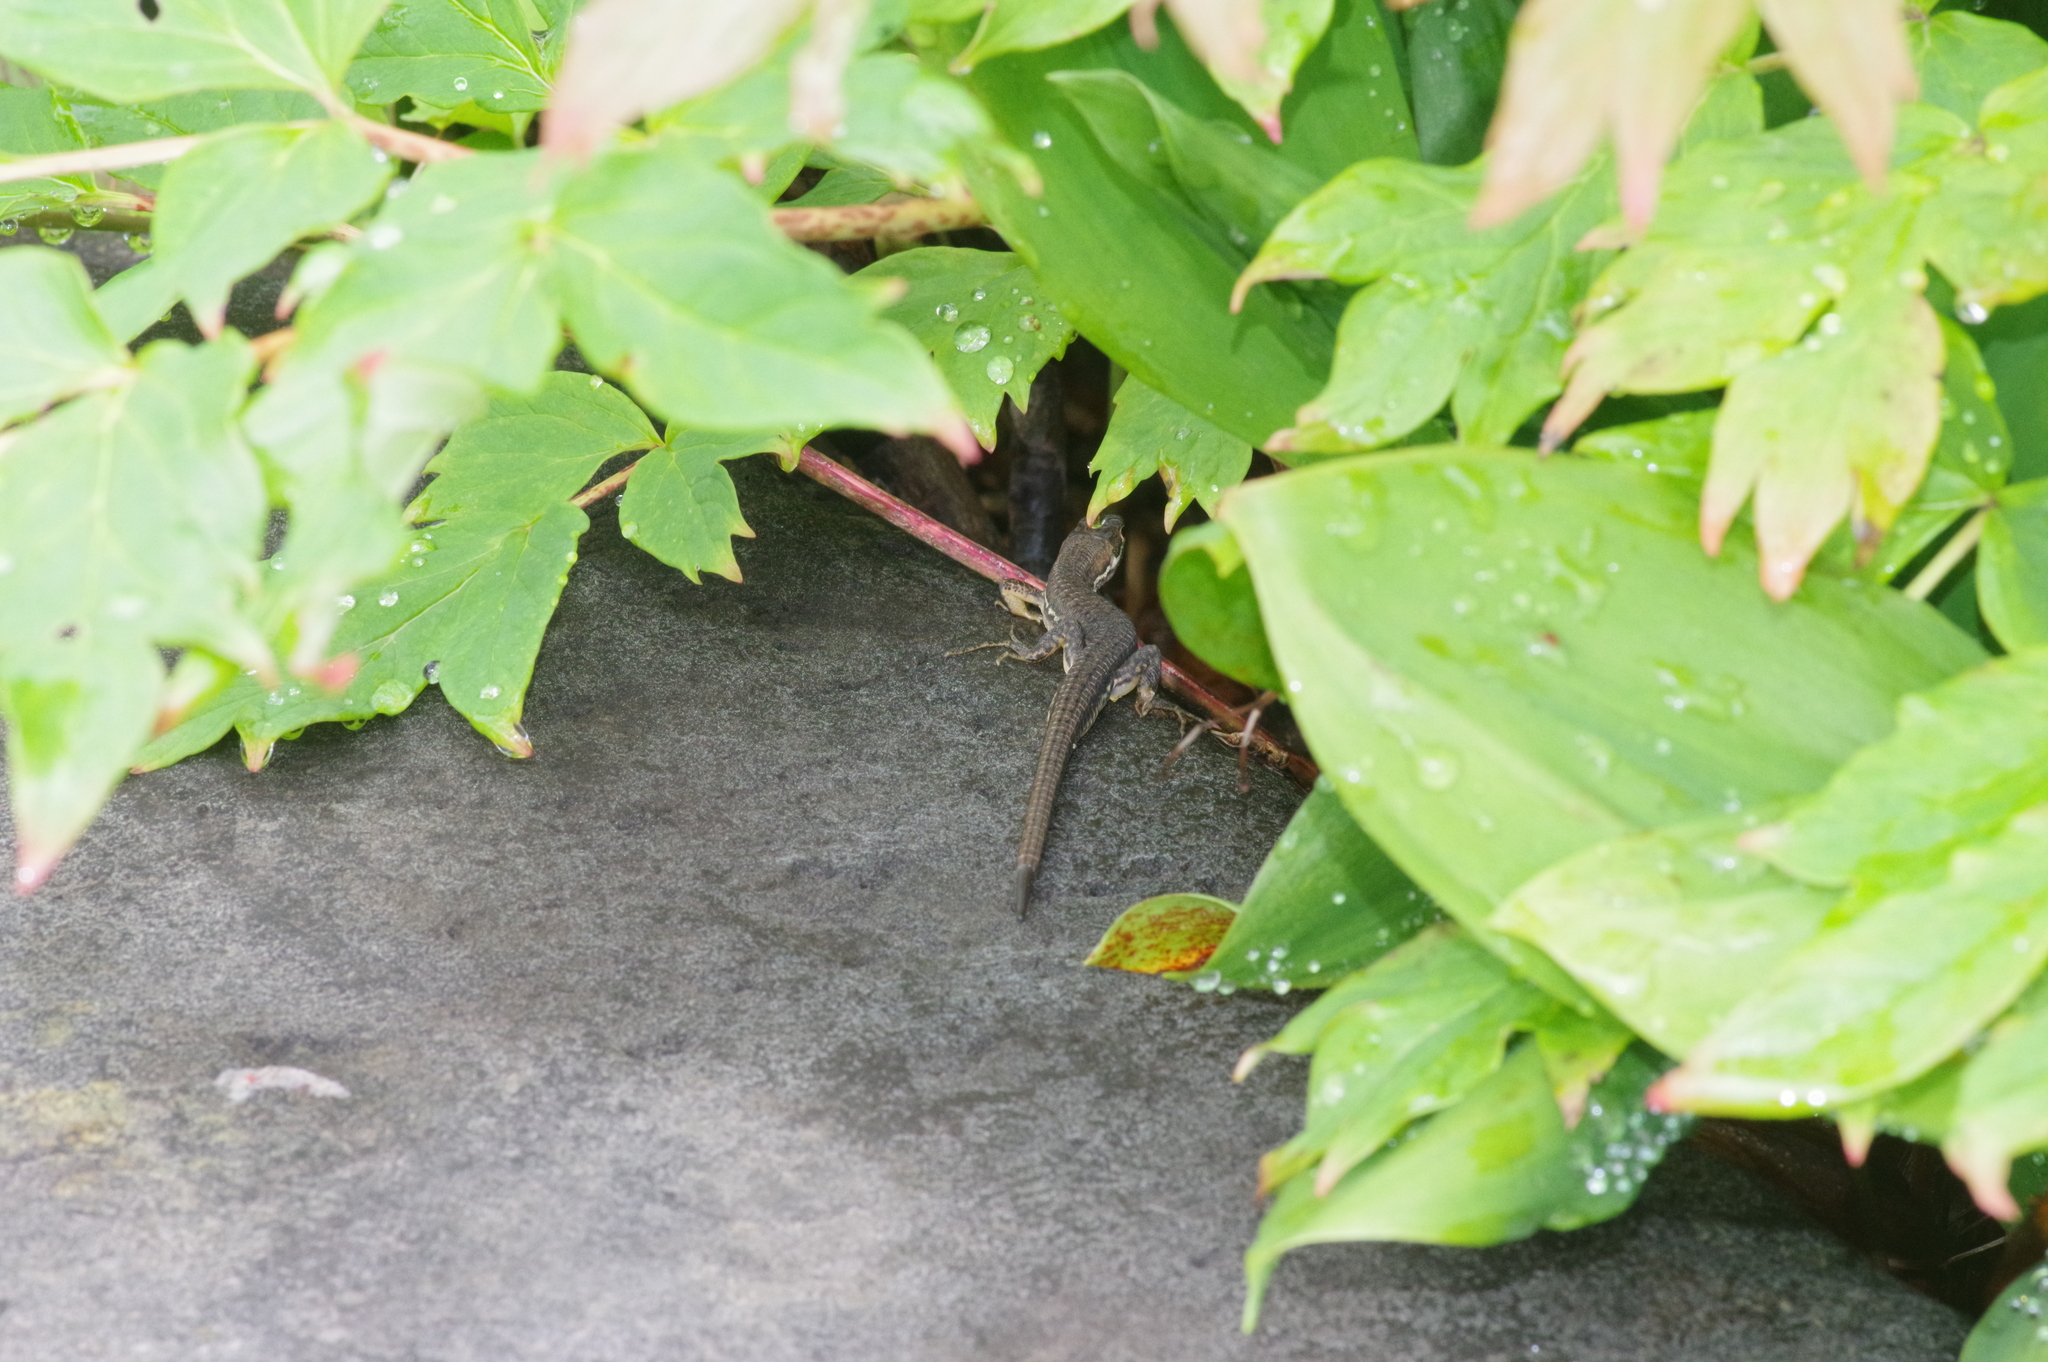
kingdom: Animalia
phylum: Chordata
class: Squamata
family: Lacertidae
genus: Takydromus
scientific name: Takydromus tachydromoides
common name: Japanese grass lizard
